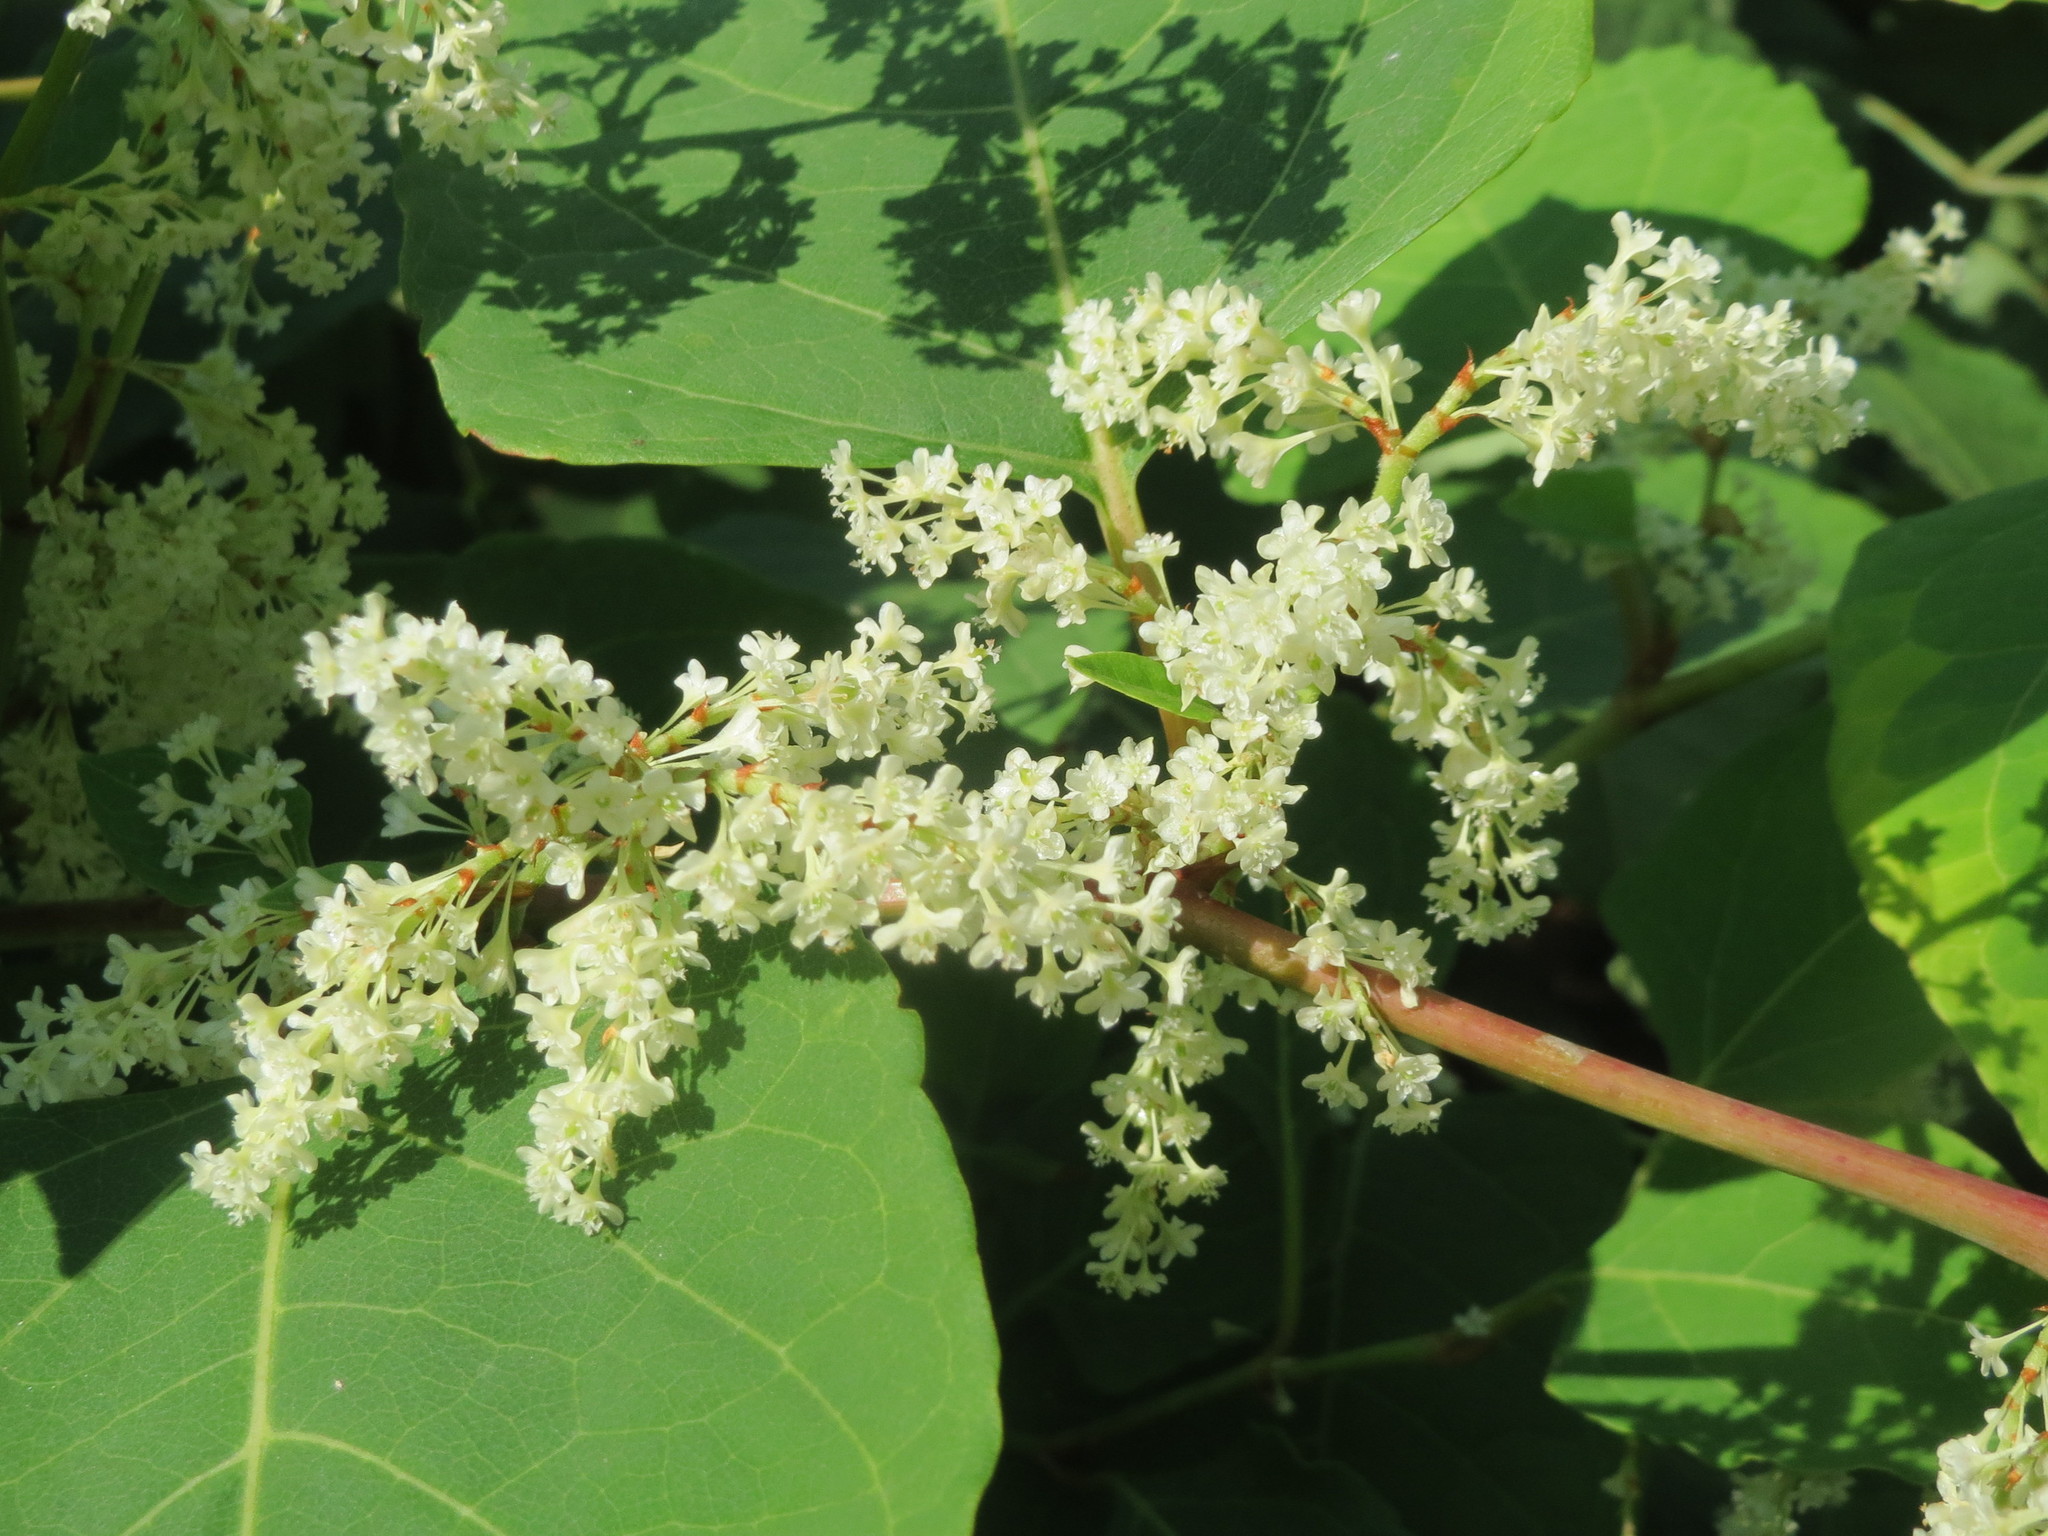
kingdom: Plantae
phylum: Tracheophyta
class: Magnoliopsida
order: Caryophyllales
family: Polygonaceae
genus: Reynoutria
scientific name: Reynoutria japonica
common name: Japanese knotweed
